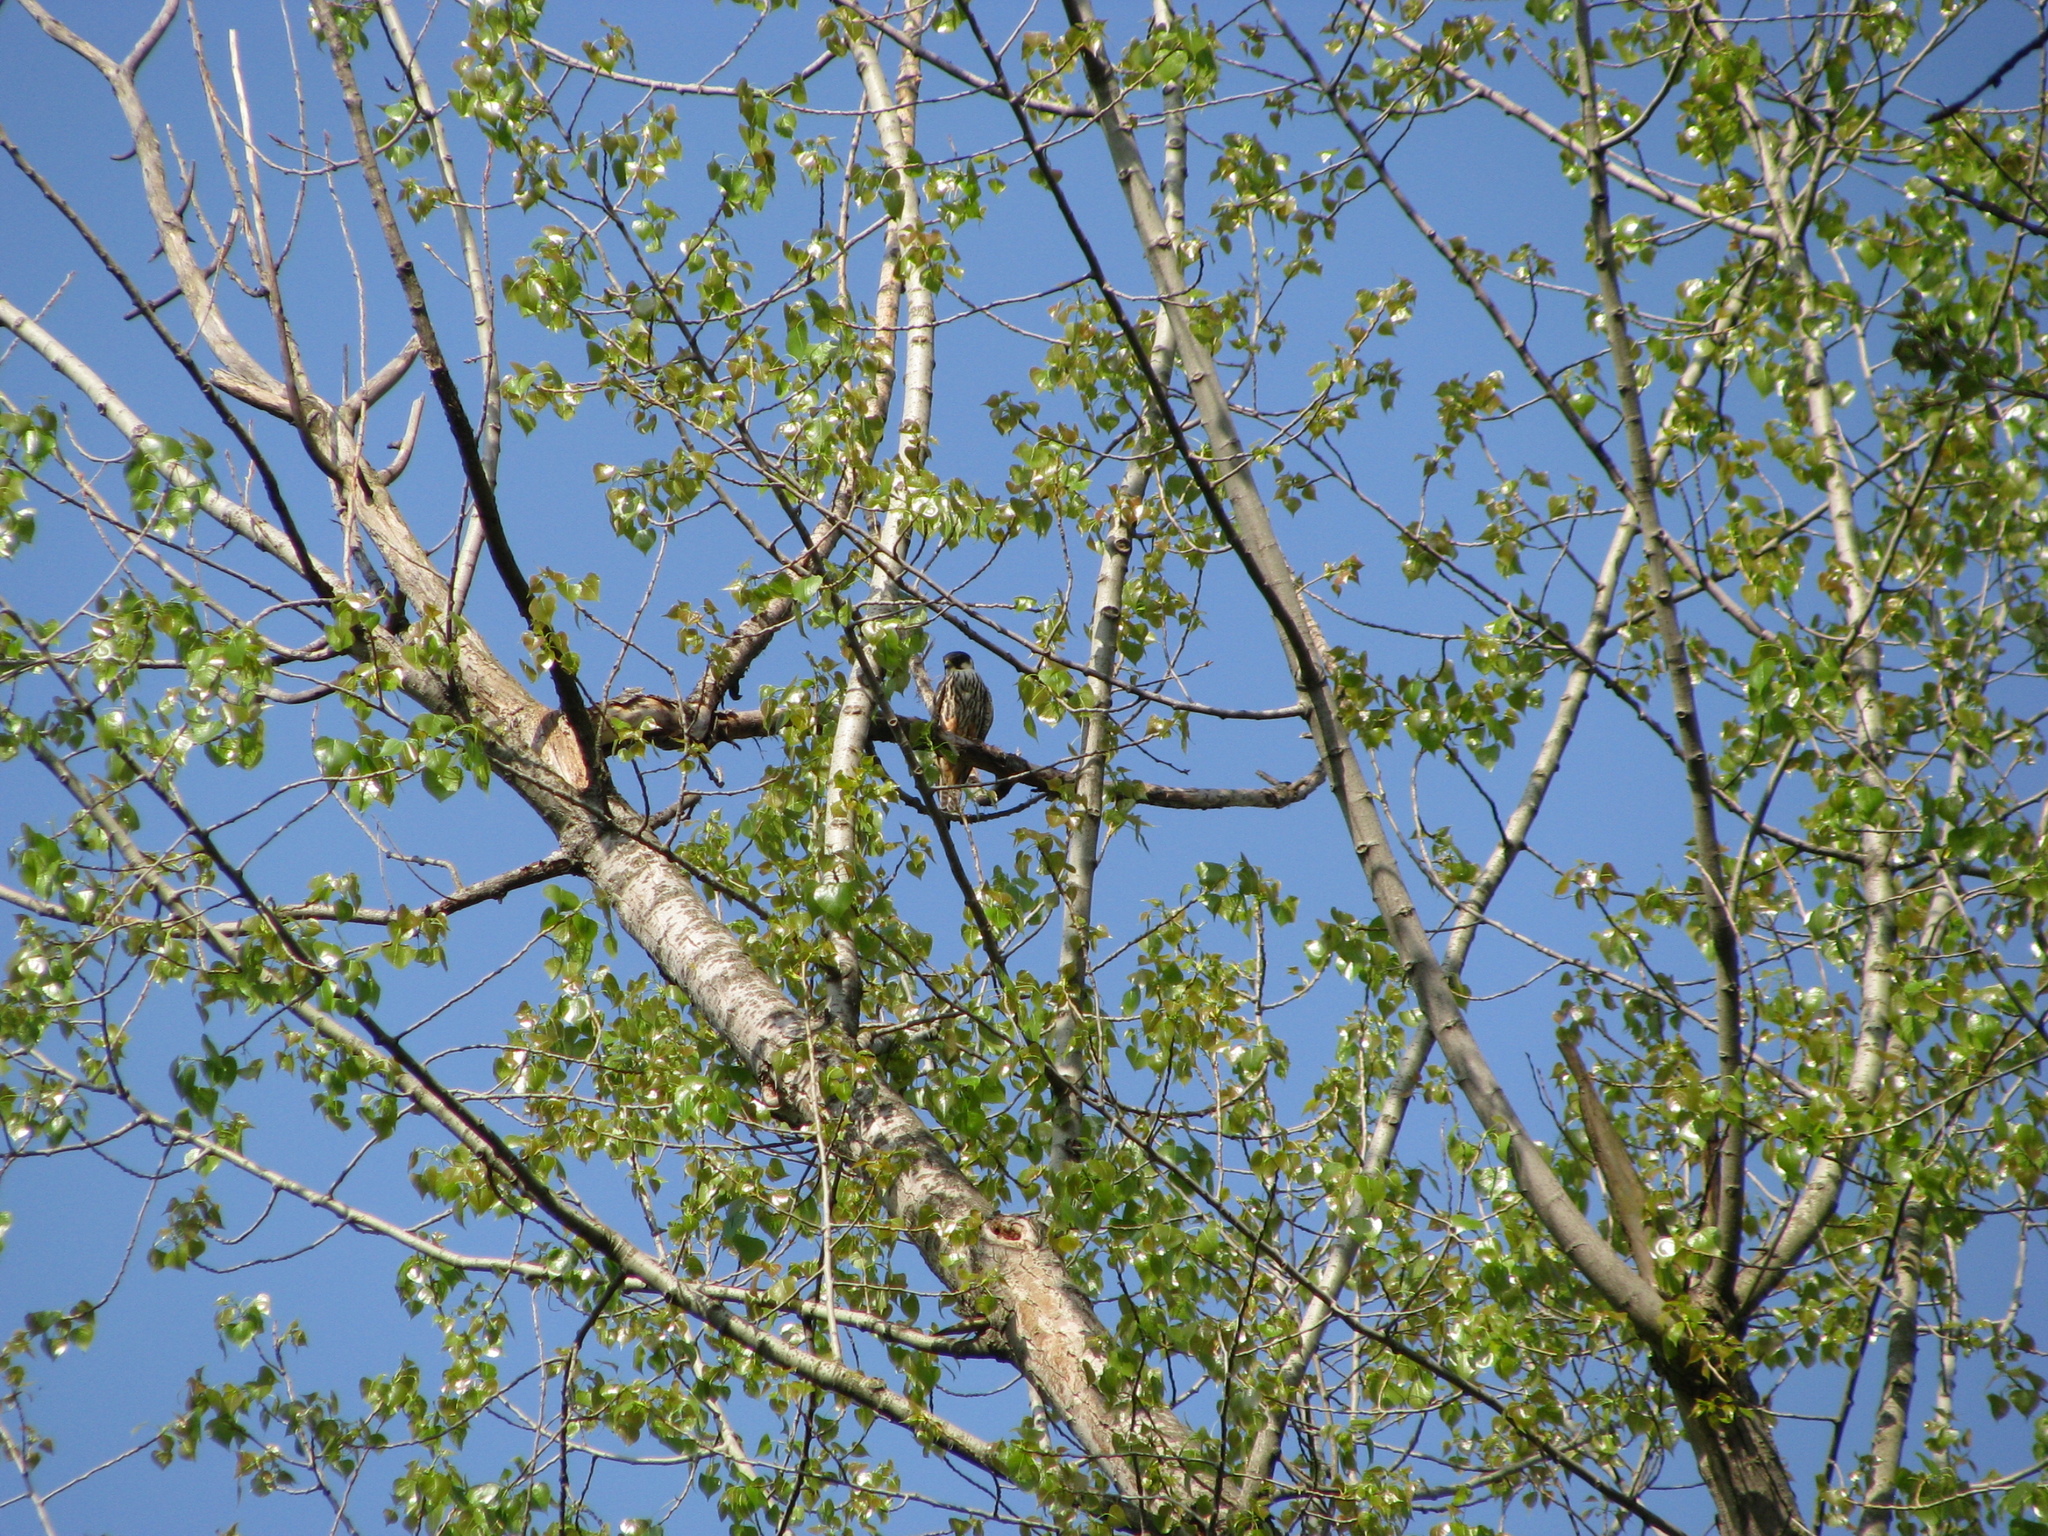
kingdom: Animalia
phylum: Chordata
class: Aves
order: Falconiformes
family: Falconidae
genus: Falco
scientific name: Falco subbuteo
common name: Eurasian hobby
